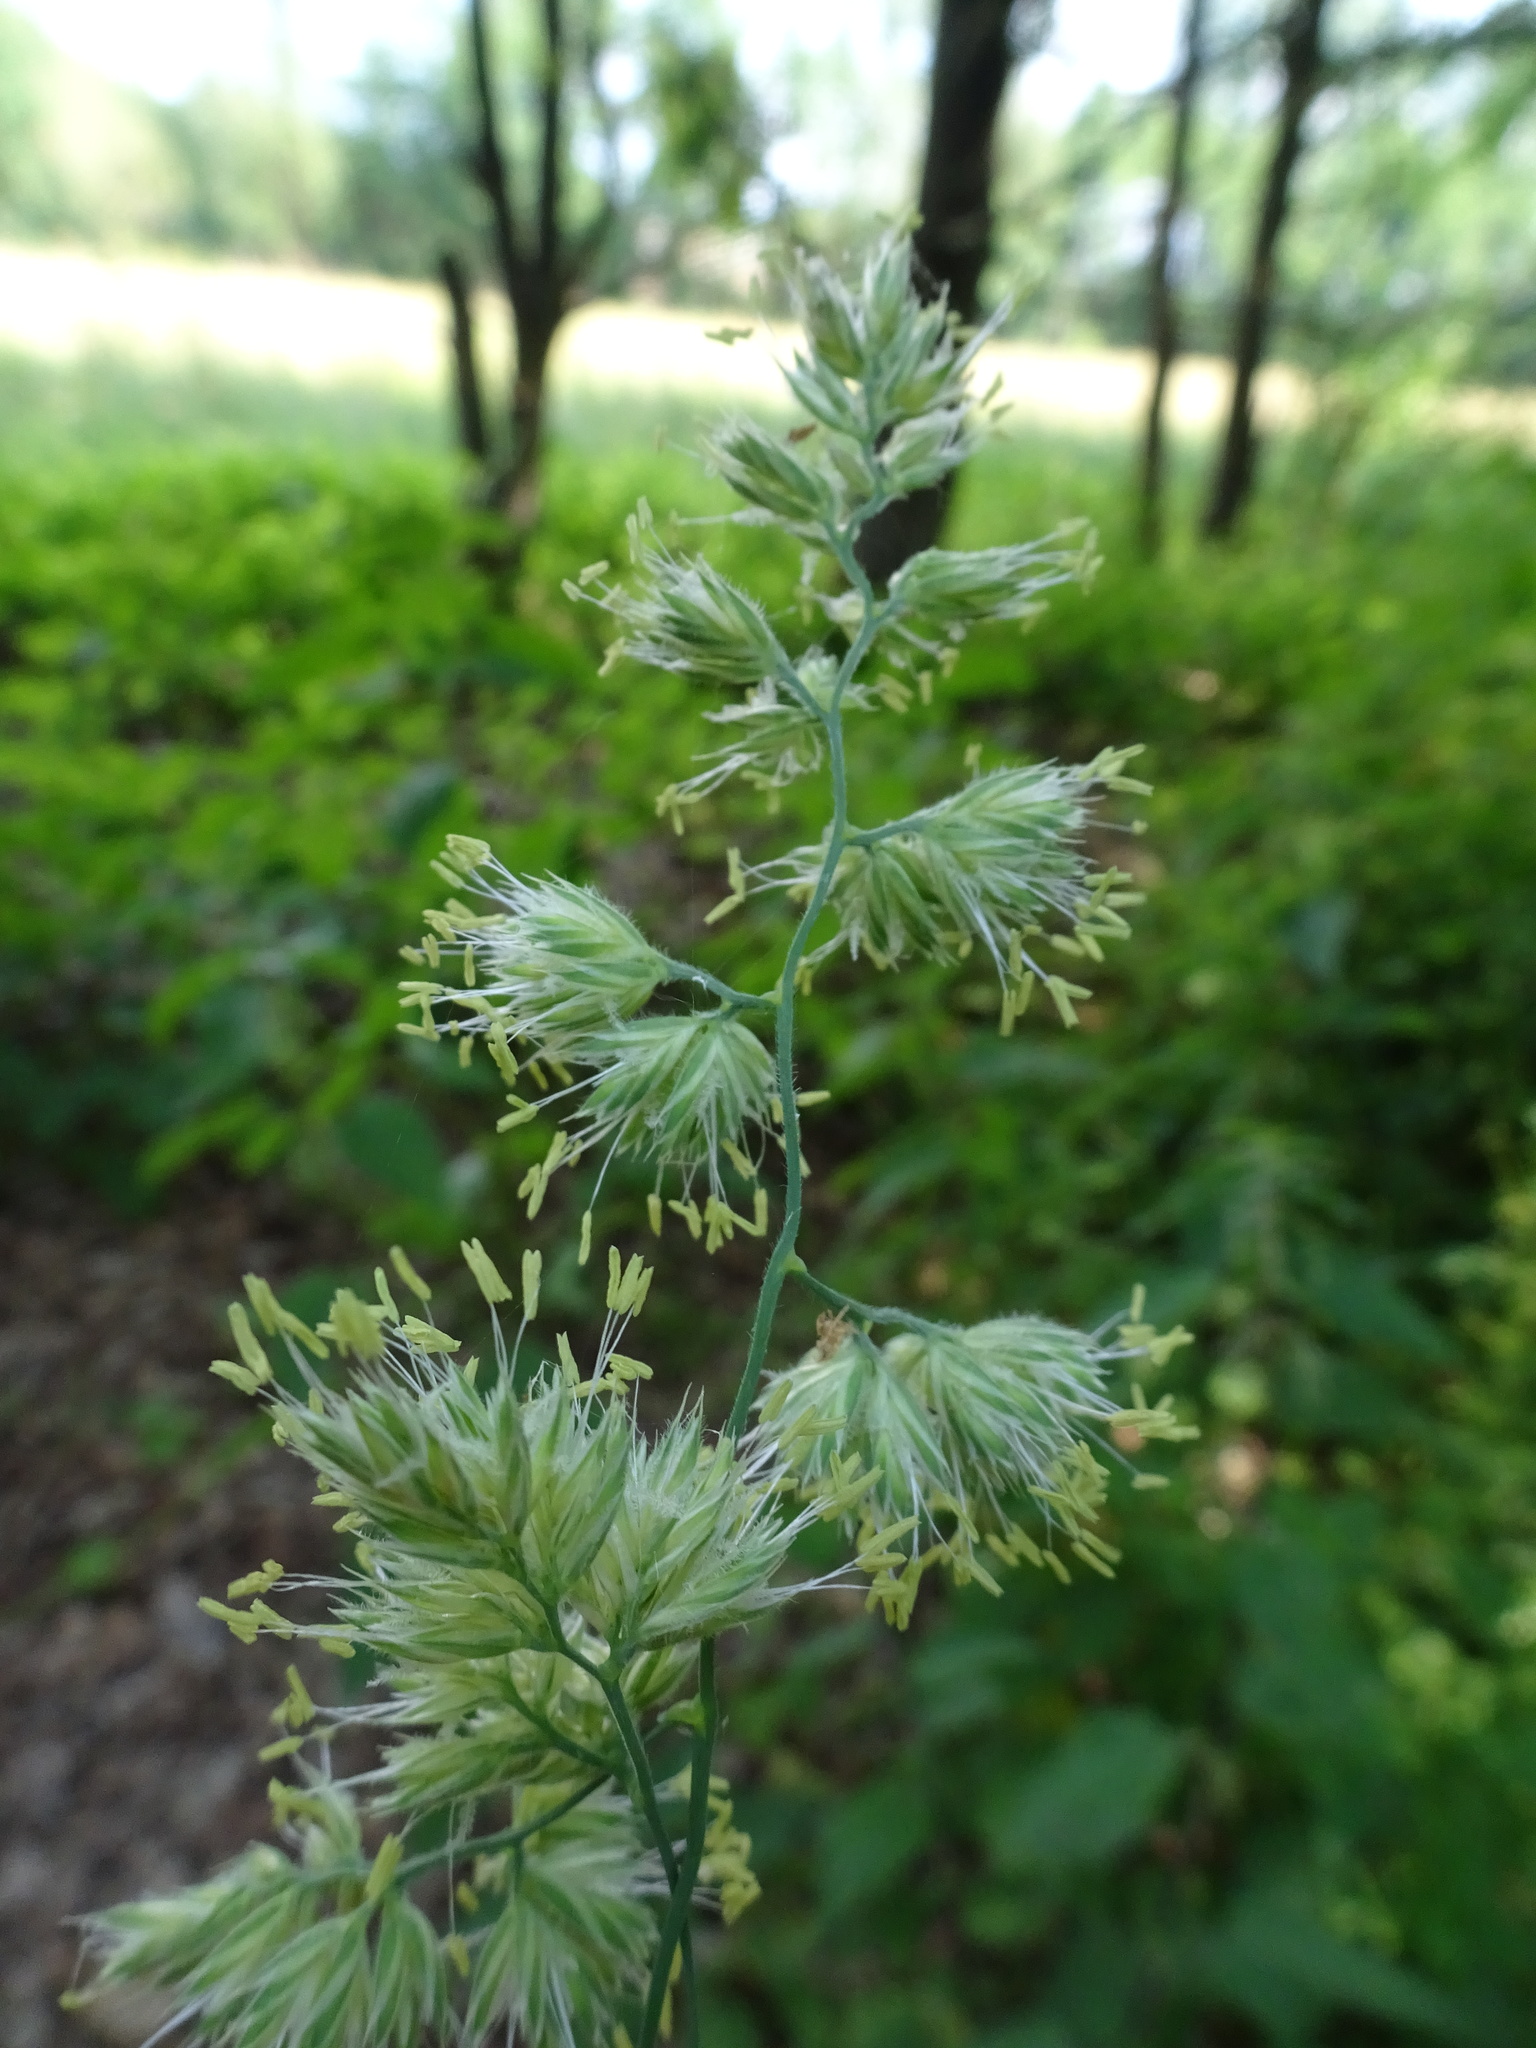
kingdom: Plantae
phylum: Tracheophyta
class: Liliopsida
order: Poales
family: Poaceae
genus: Dactylis
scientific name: Dactylis glomerata
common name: Orchardgrass
